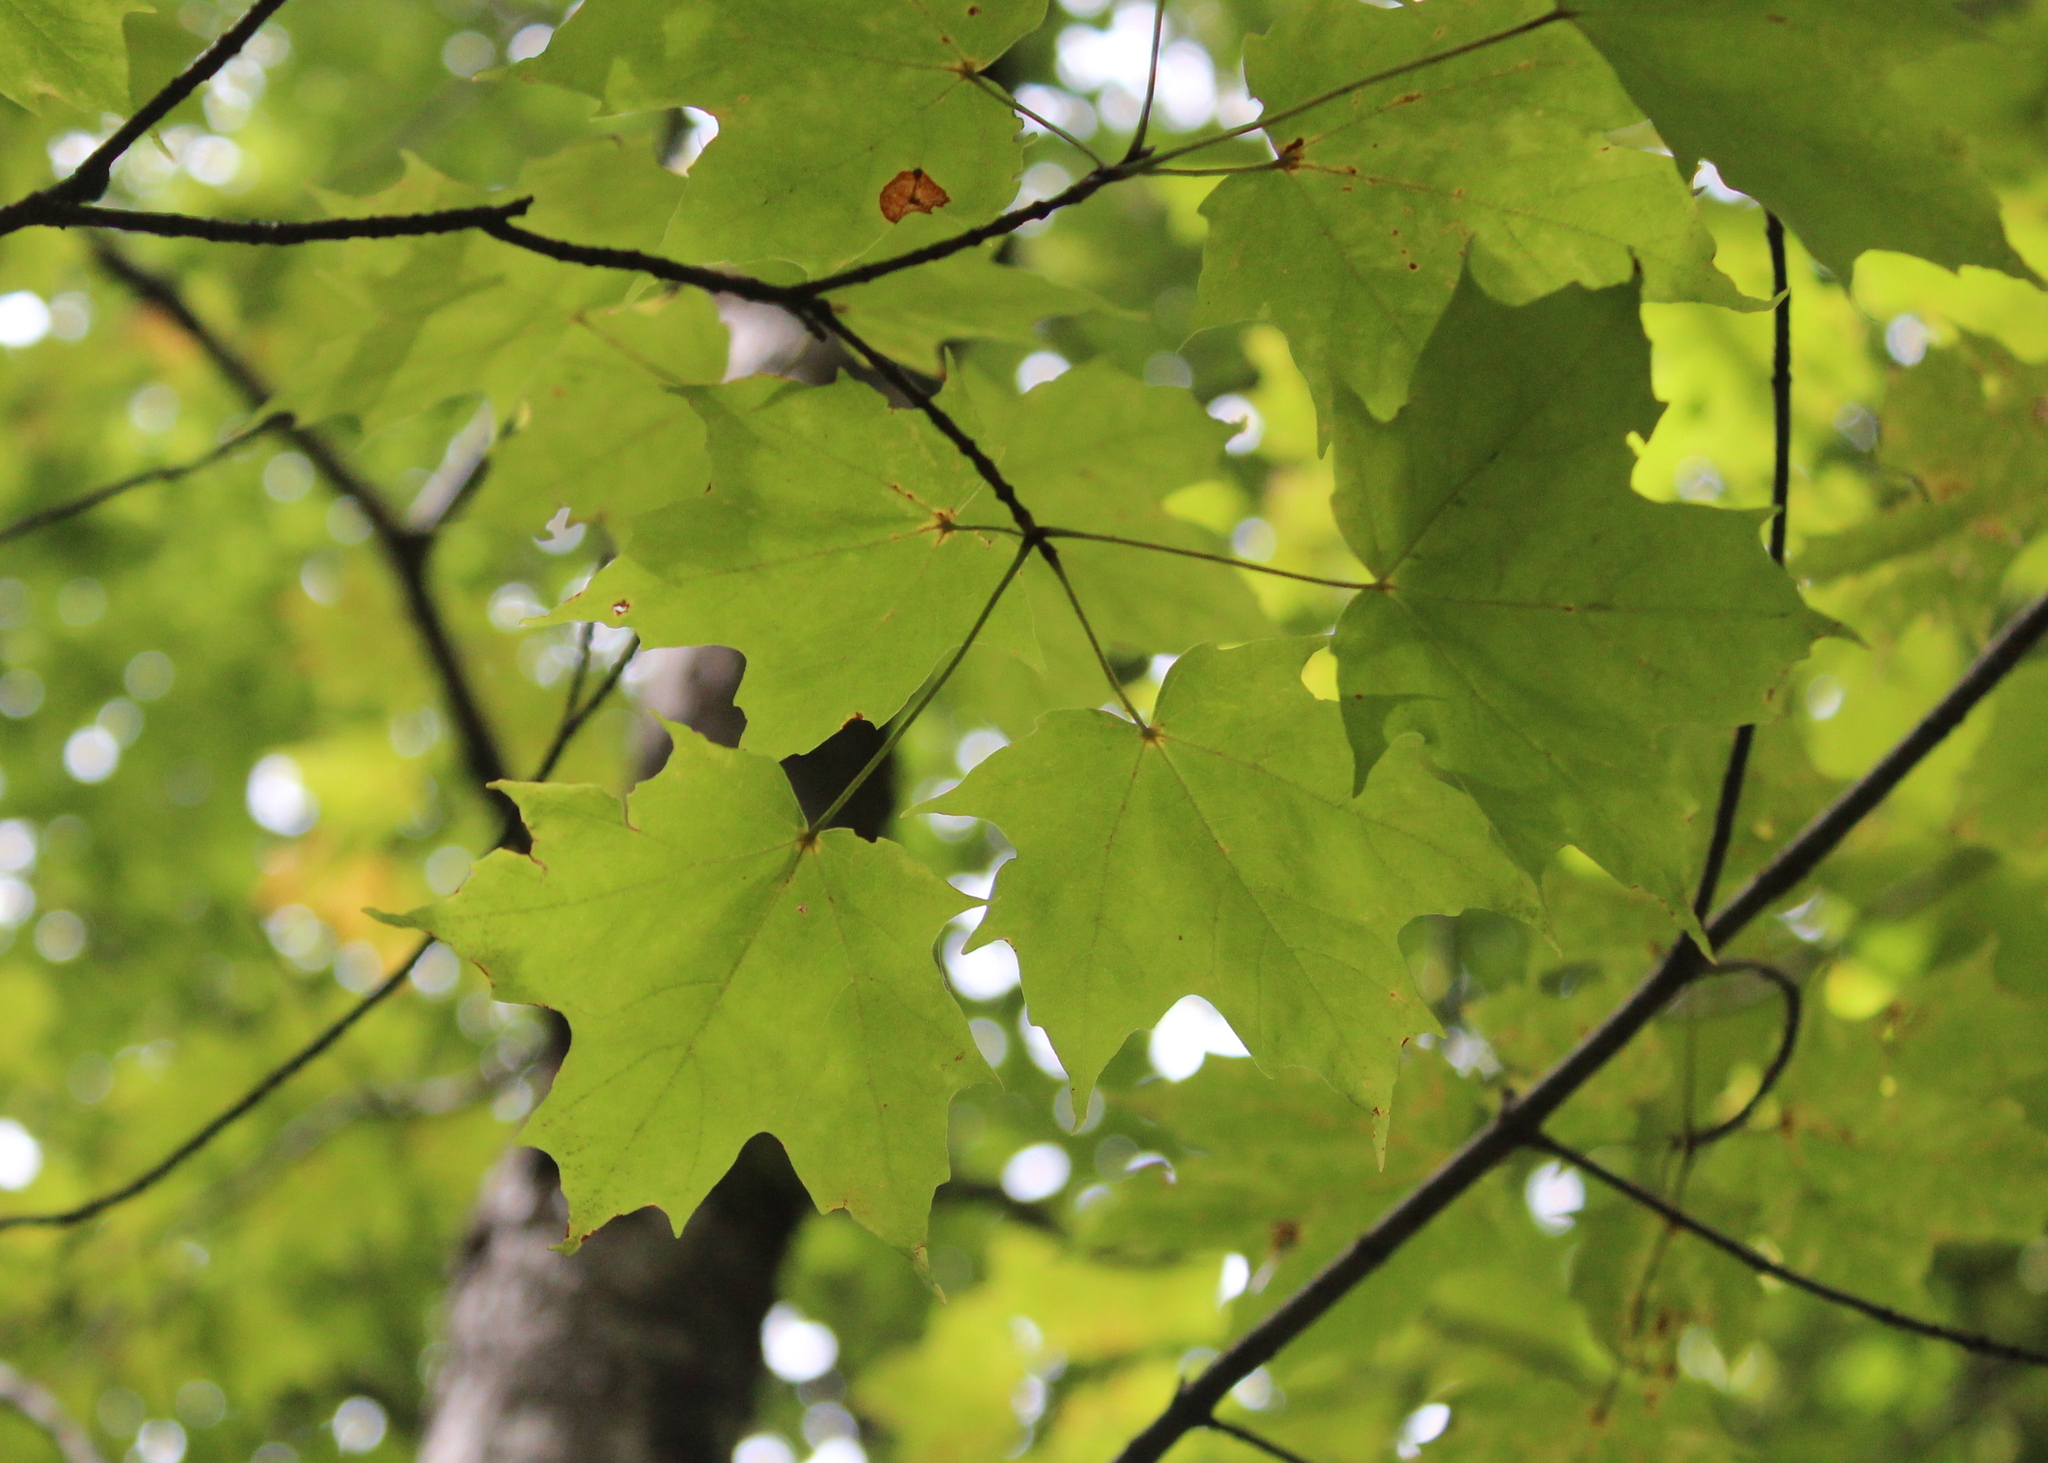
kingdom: Plantae
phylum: Tracheophyta
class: Magnoliopsida
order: Sapindales
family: Sapindaceae
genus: Acer
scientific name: Acer saccharum
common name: Sugar maple
